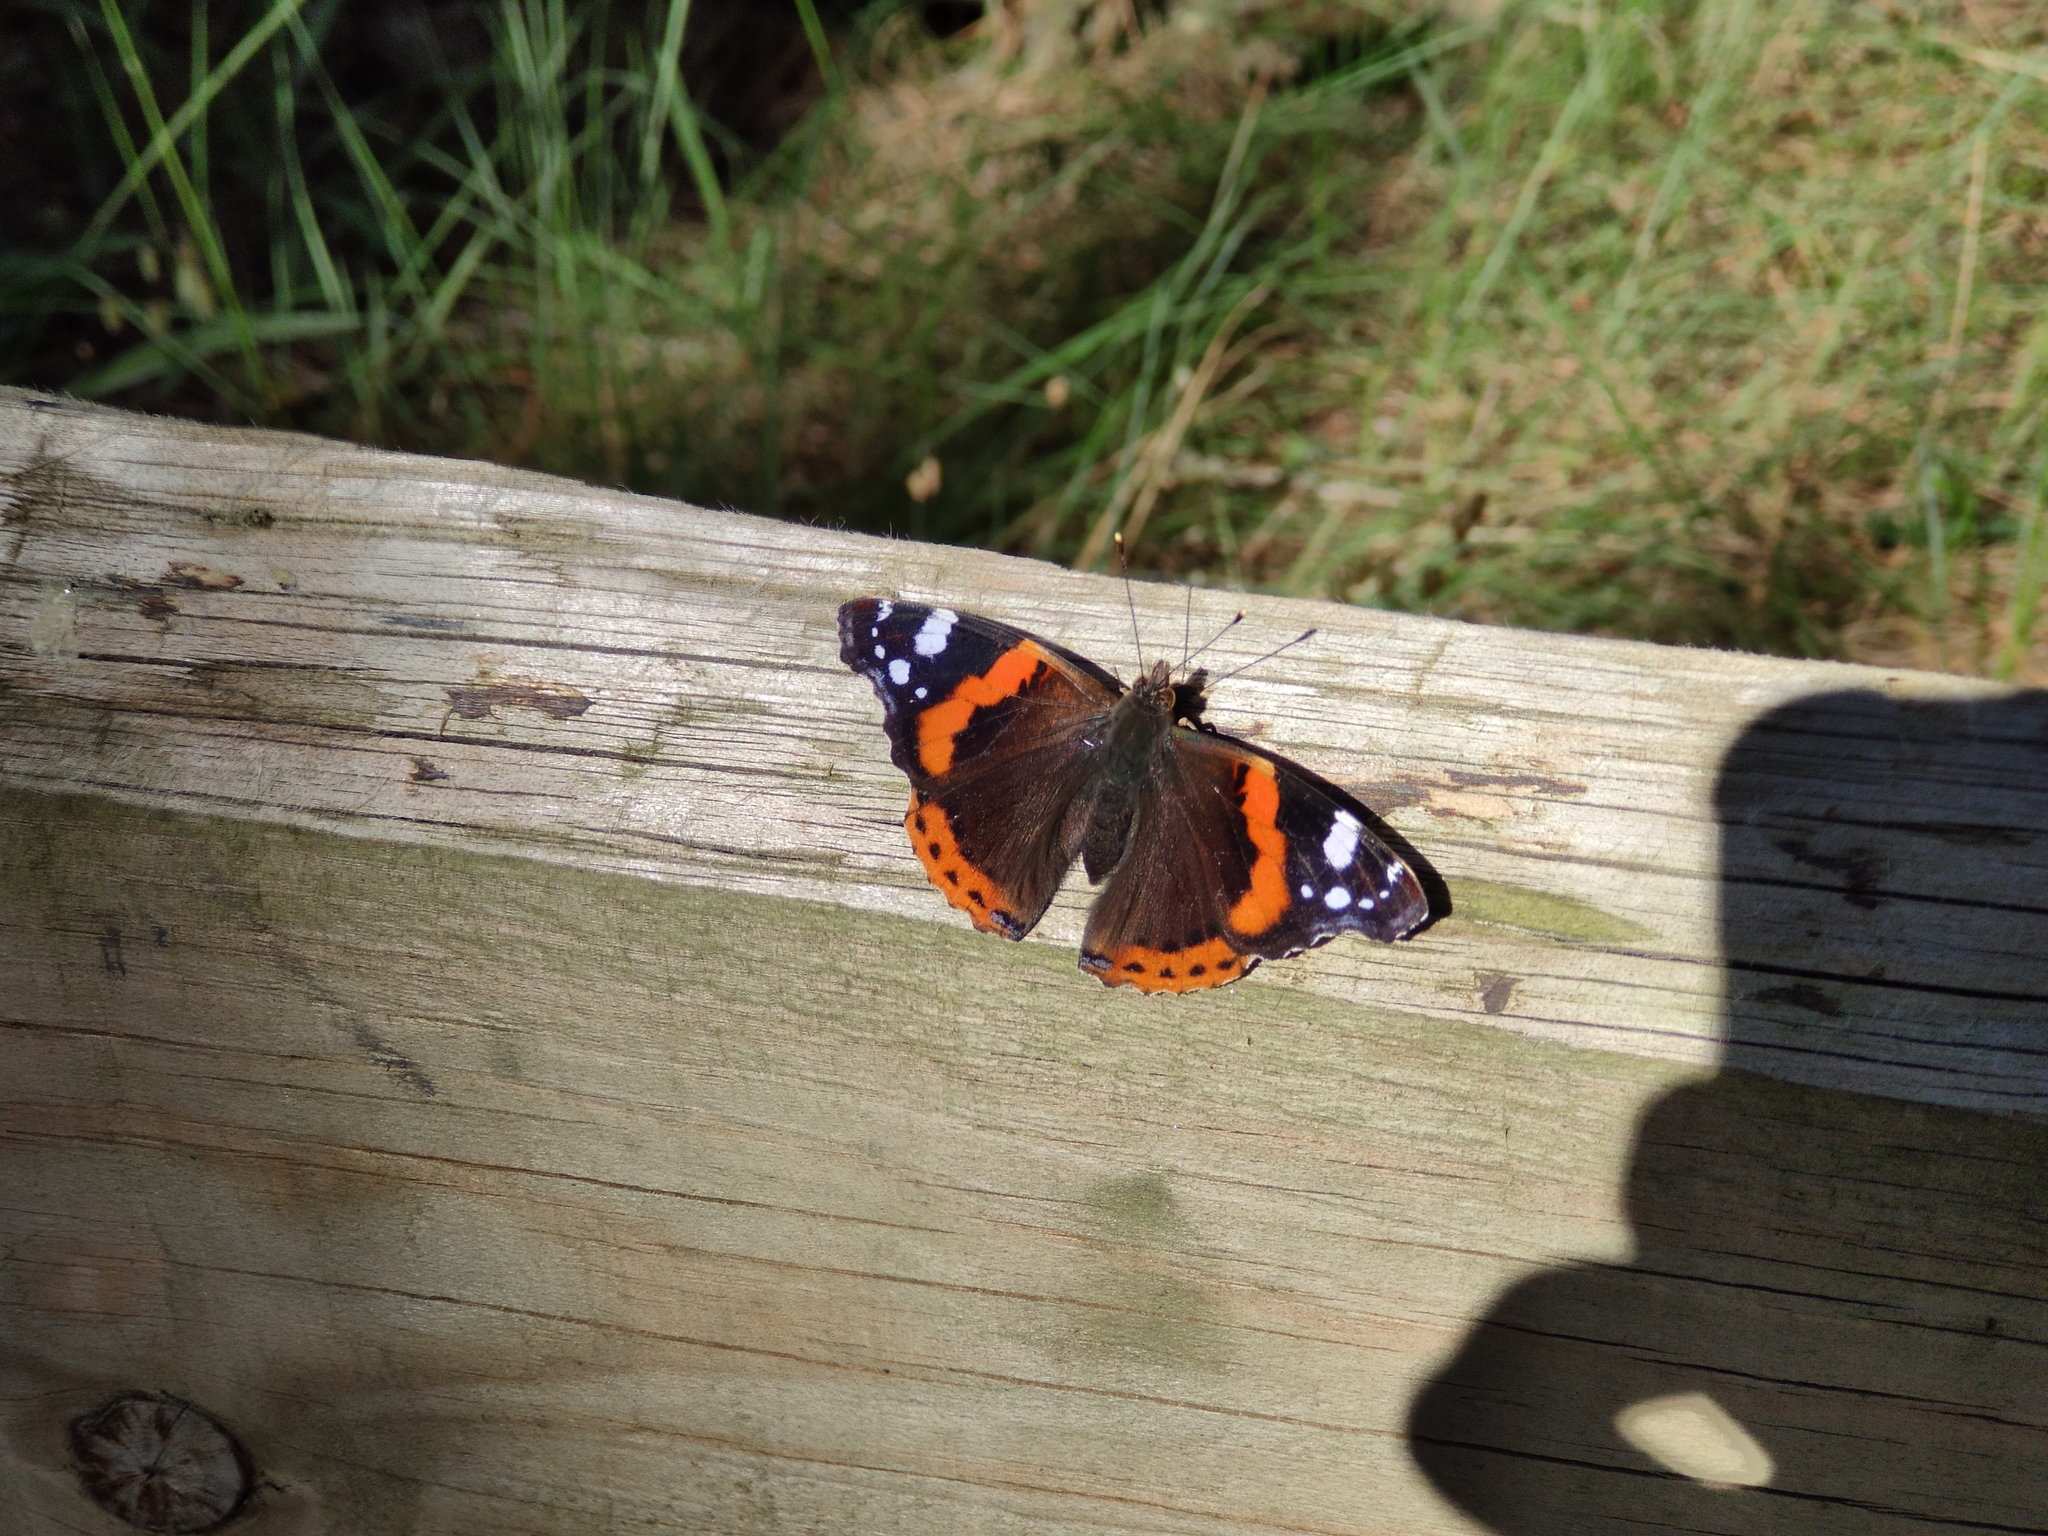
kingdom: Animalia
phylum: Arthropoda
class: Insecta
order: Lepidoptera
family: Nymphalidae
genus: Vanessa
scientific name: Vanessa atalanta
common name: Red admiral
